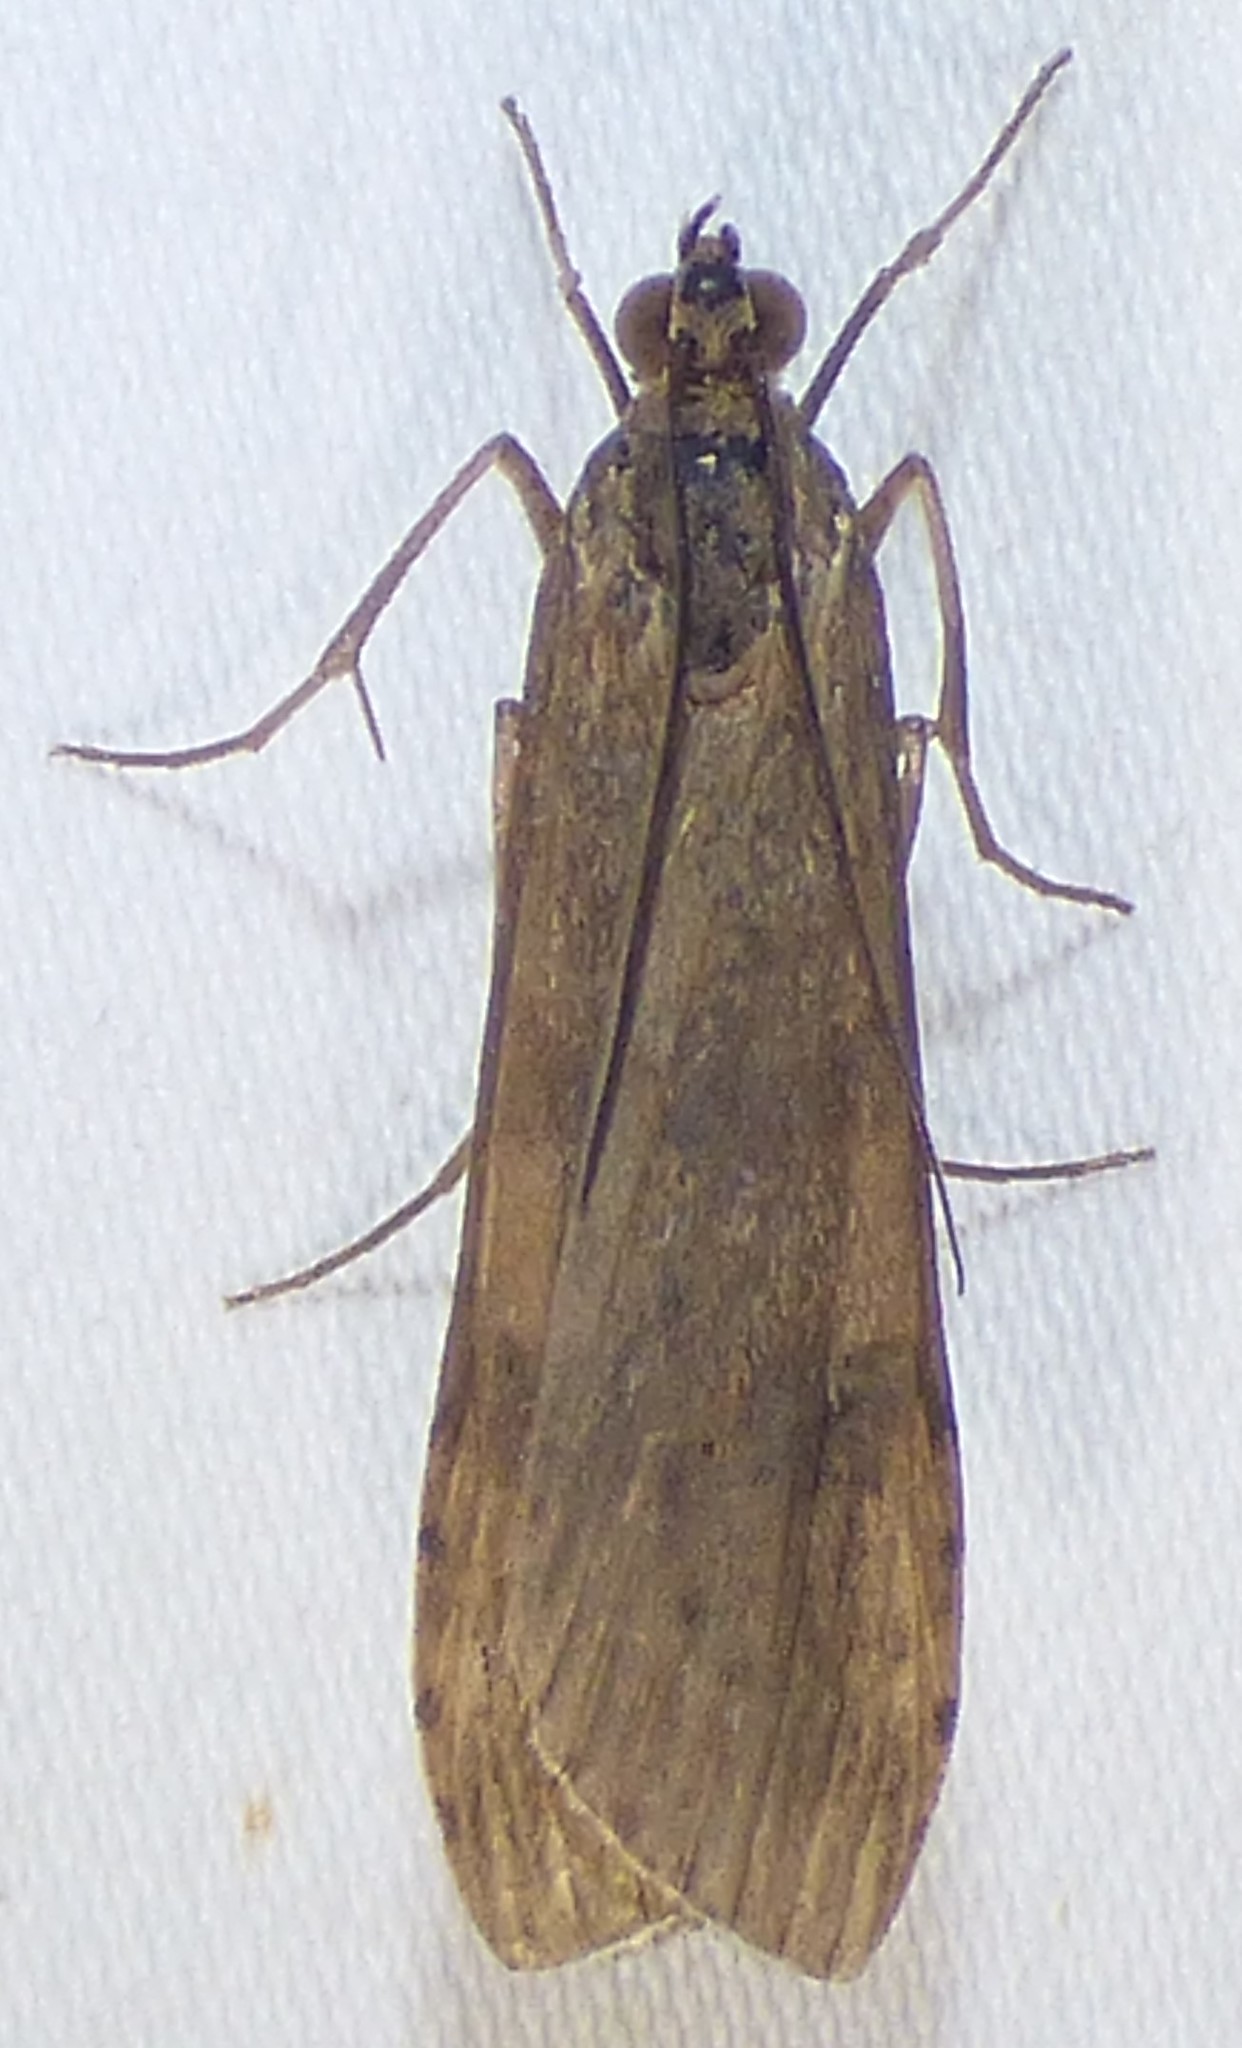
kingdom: Animalia
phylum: Arthropoda
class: Insecta
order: Lepidoptera
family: Crambidae
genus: Nomophila
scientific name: Nomophila nearctica
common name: American rush veneer
